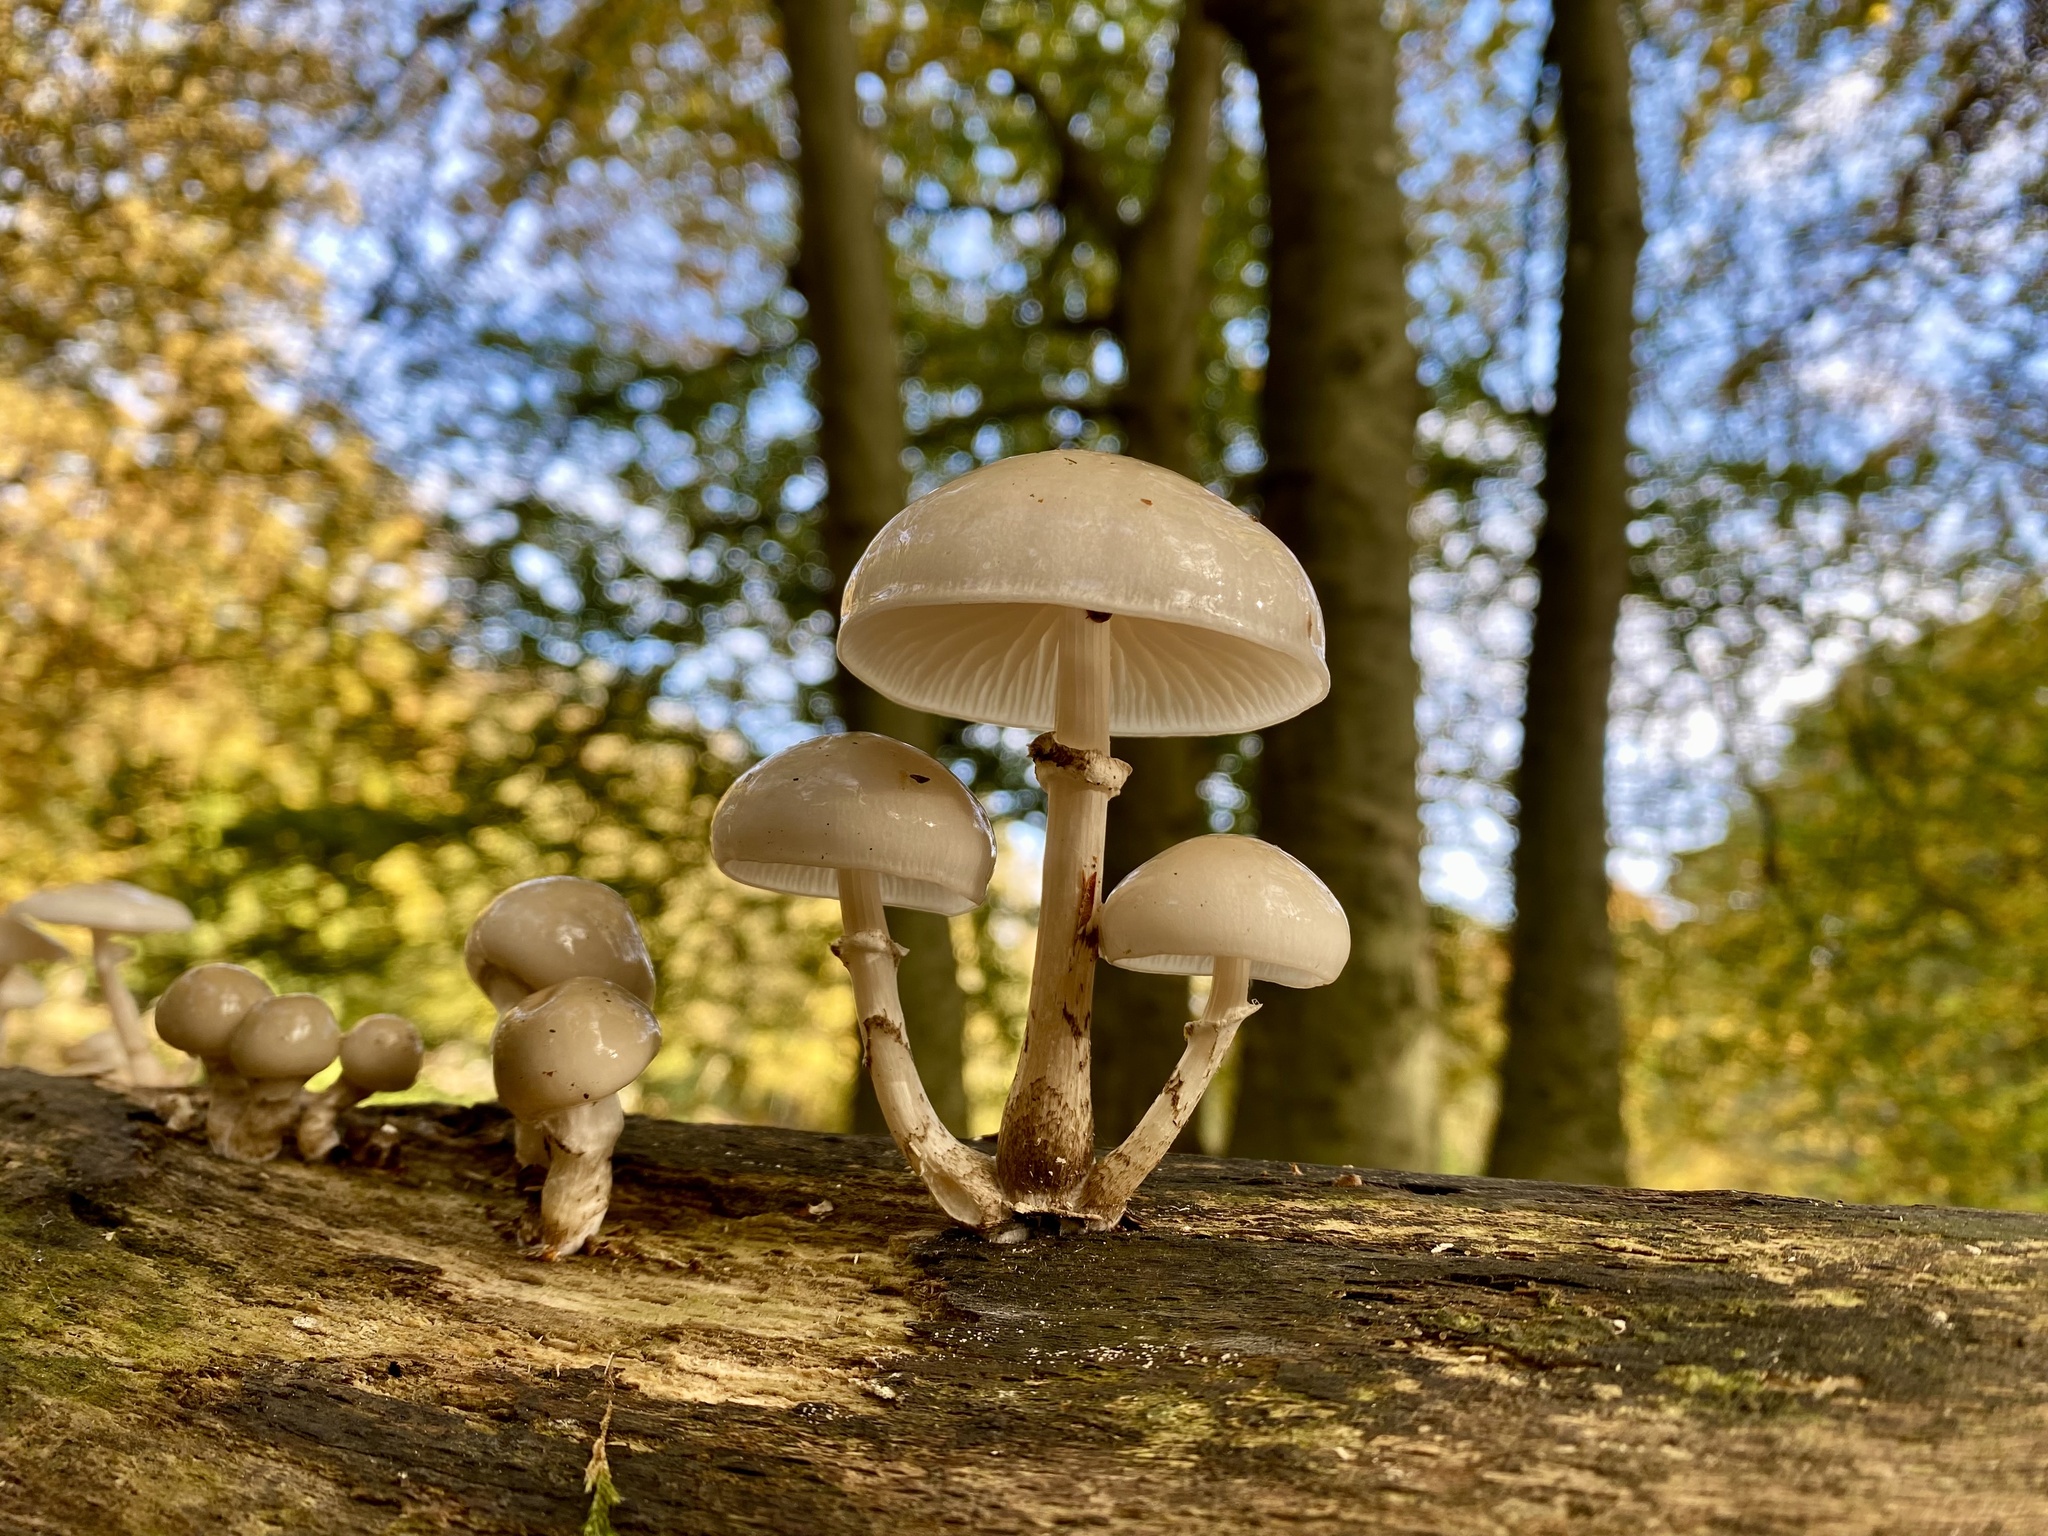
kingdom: Fungi
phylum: Basidiomycota
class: Agaricomycetes
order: Agaricales
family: Physalacriaceae
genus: Mucidula
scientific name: Mucidula mucida
